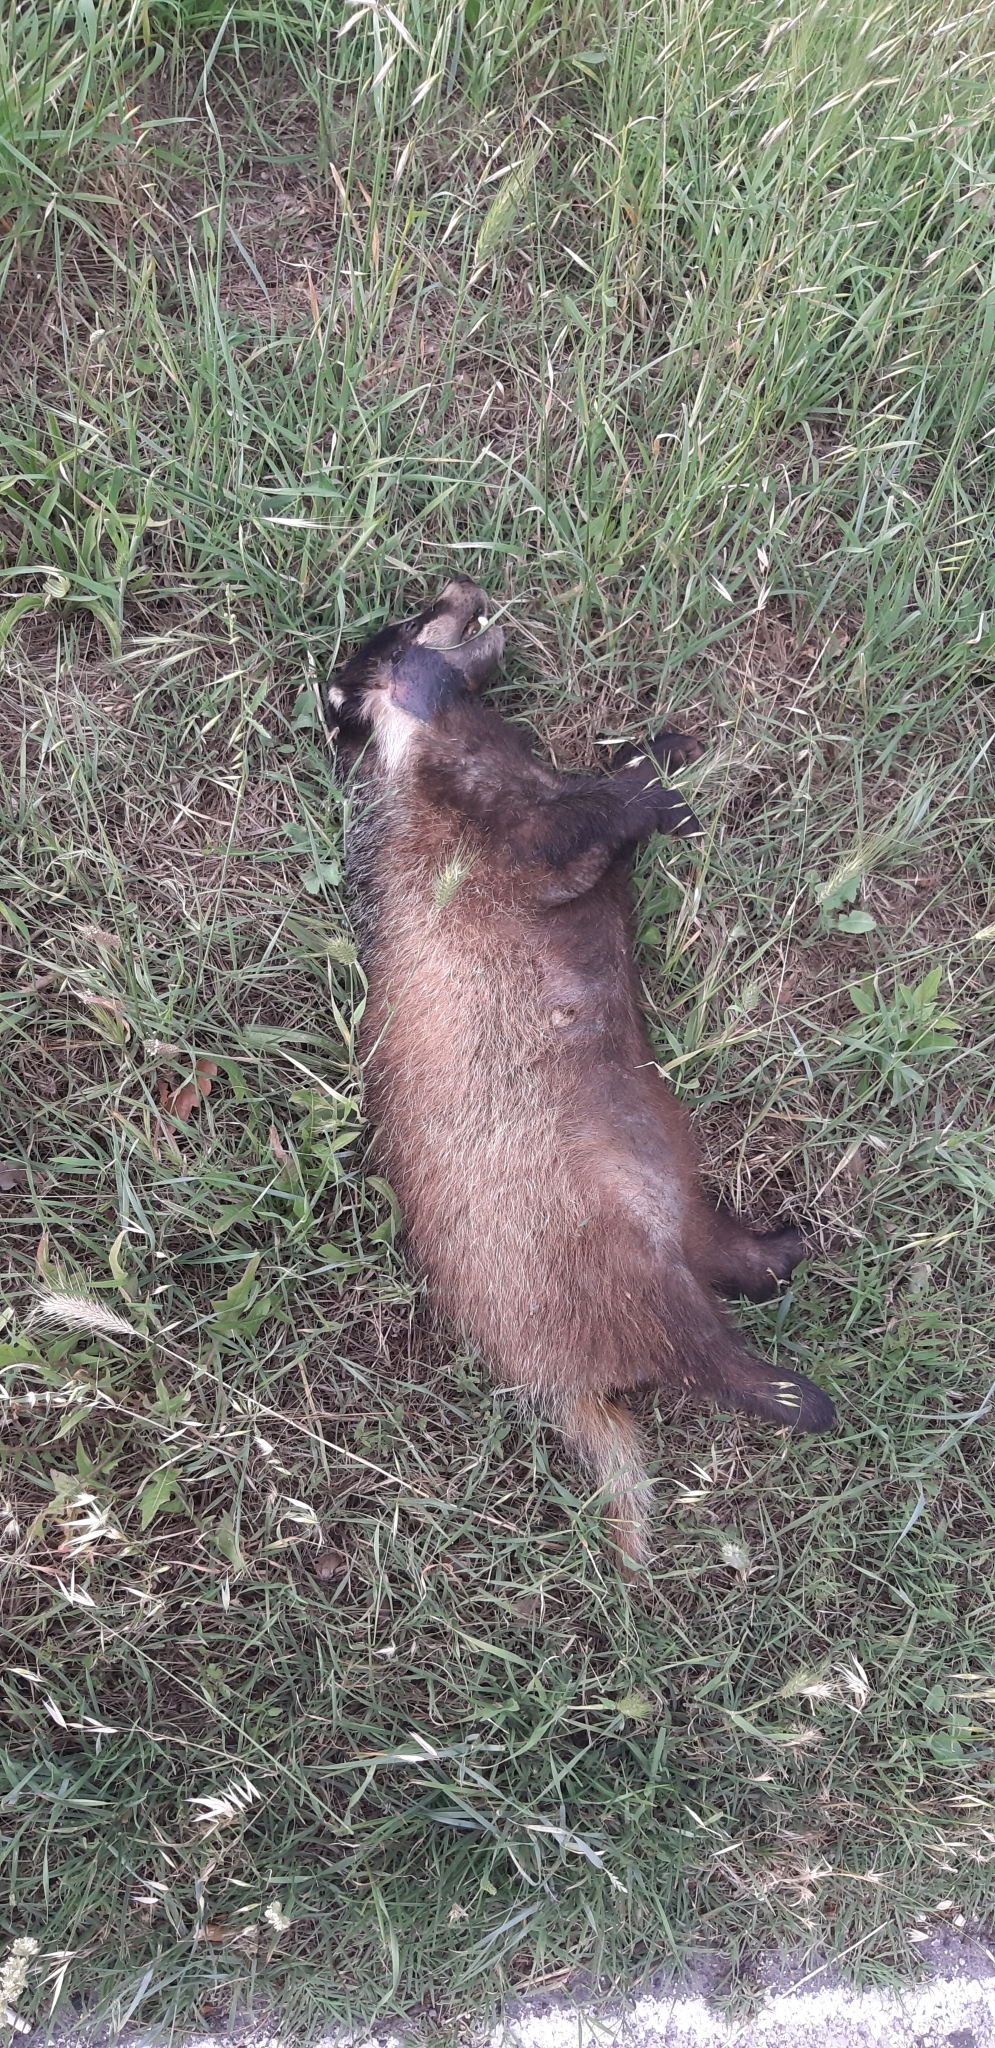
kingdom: Animalia
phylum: Chordata
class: Mammalia
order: Carnivora
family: Mustelidae
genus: Meles
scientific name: Meles meles
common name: Eurasian badger
